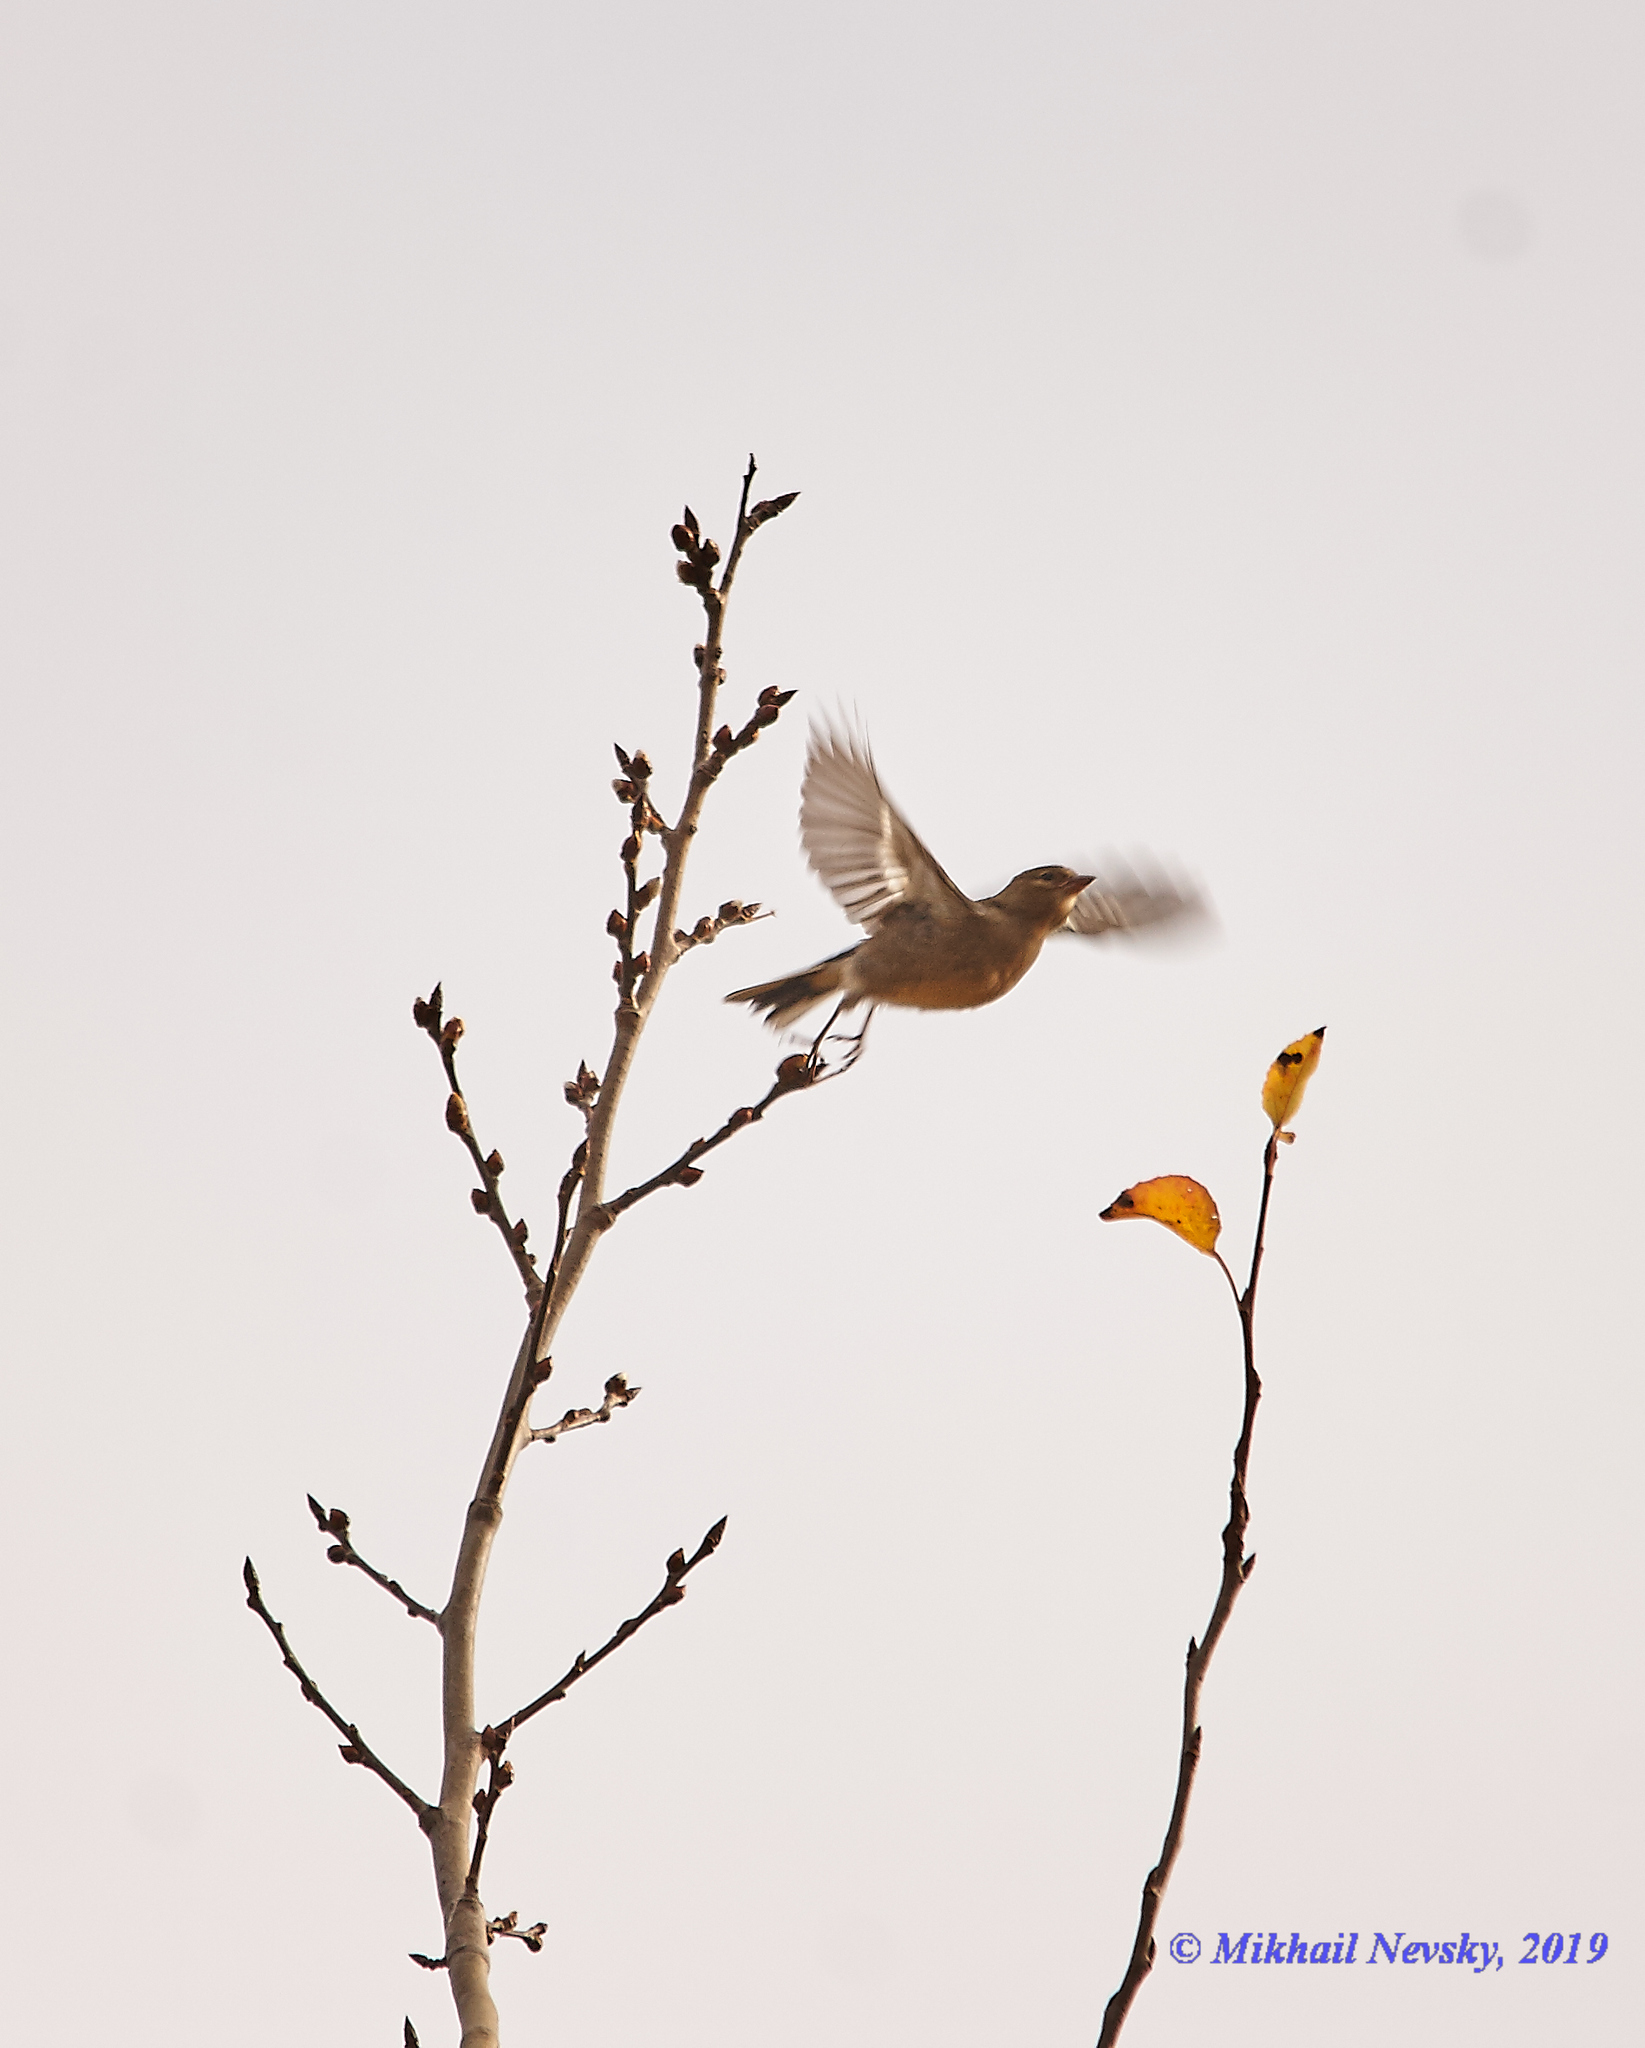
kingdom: Animalia
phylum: Chordata
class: Aves
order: Passeriformes
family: Fringillidae
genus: Fringilla
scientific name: Fringilla coelebs
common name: Common chaffinch
